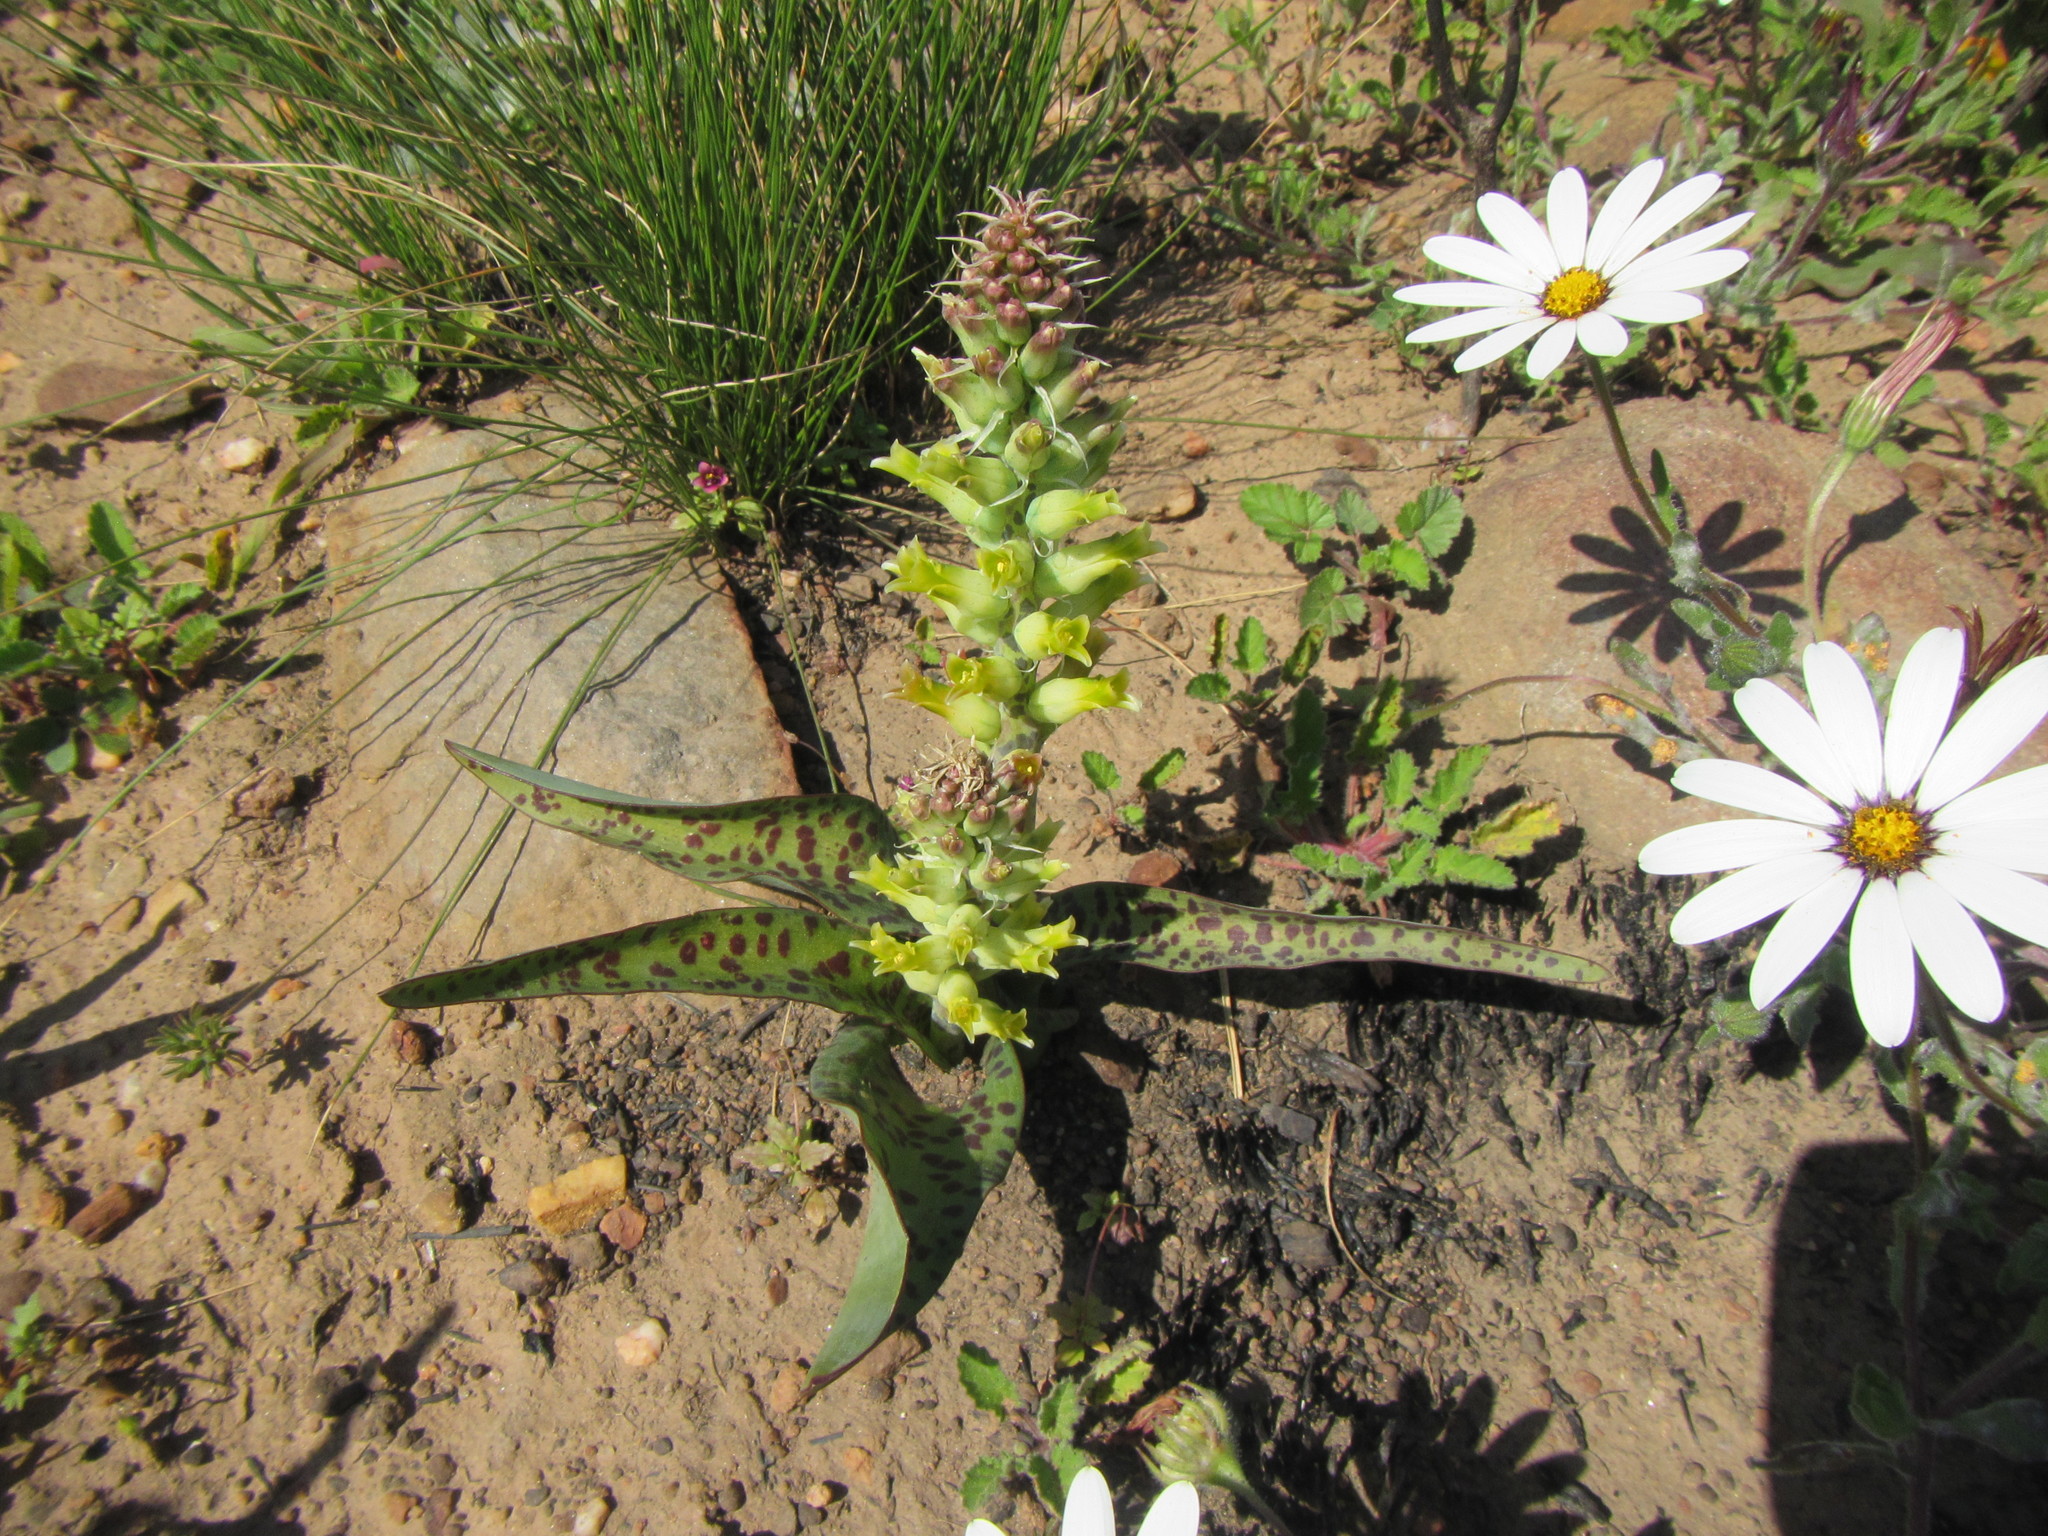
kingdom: Plantae
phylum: Tracheophyta
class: Liliopsida
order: Asparagales
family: Asparagaceae
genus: Lachenalia
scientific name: Lachenalia orchioides
